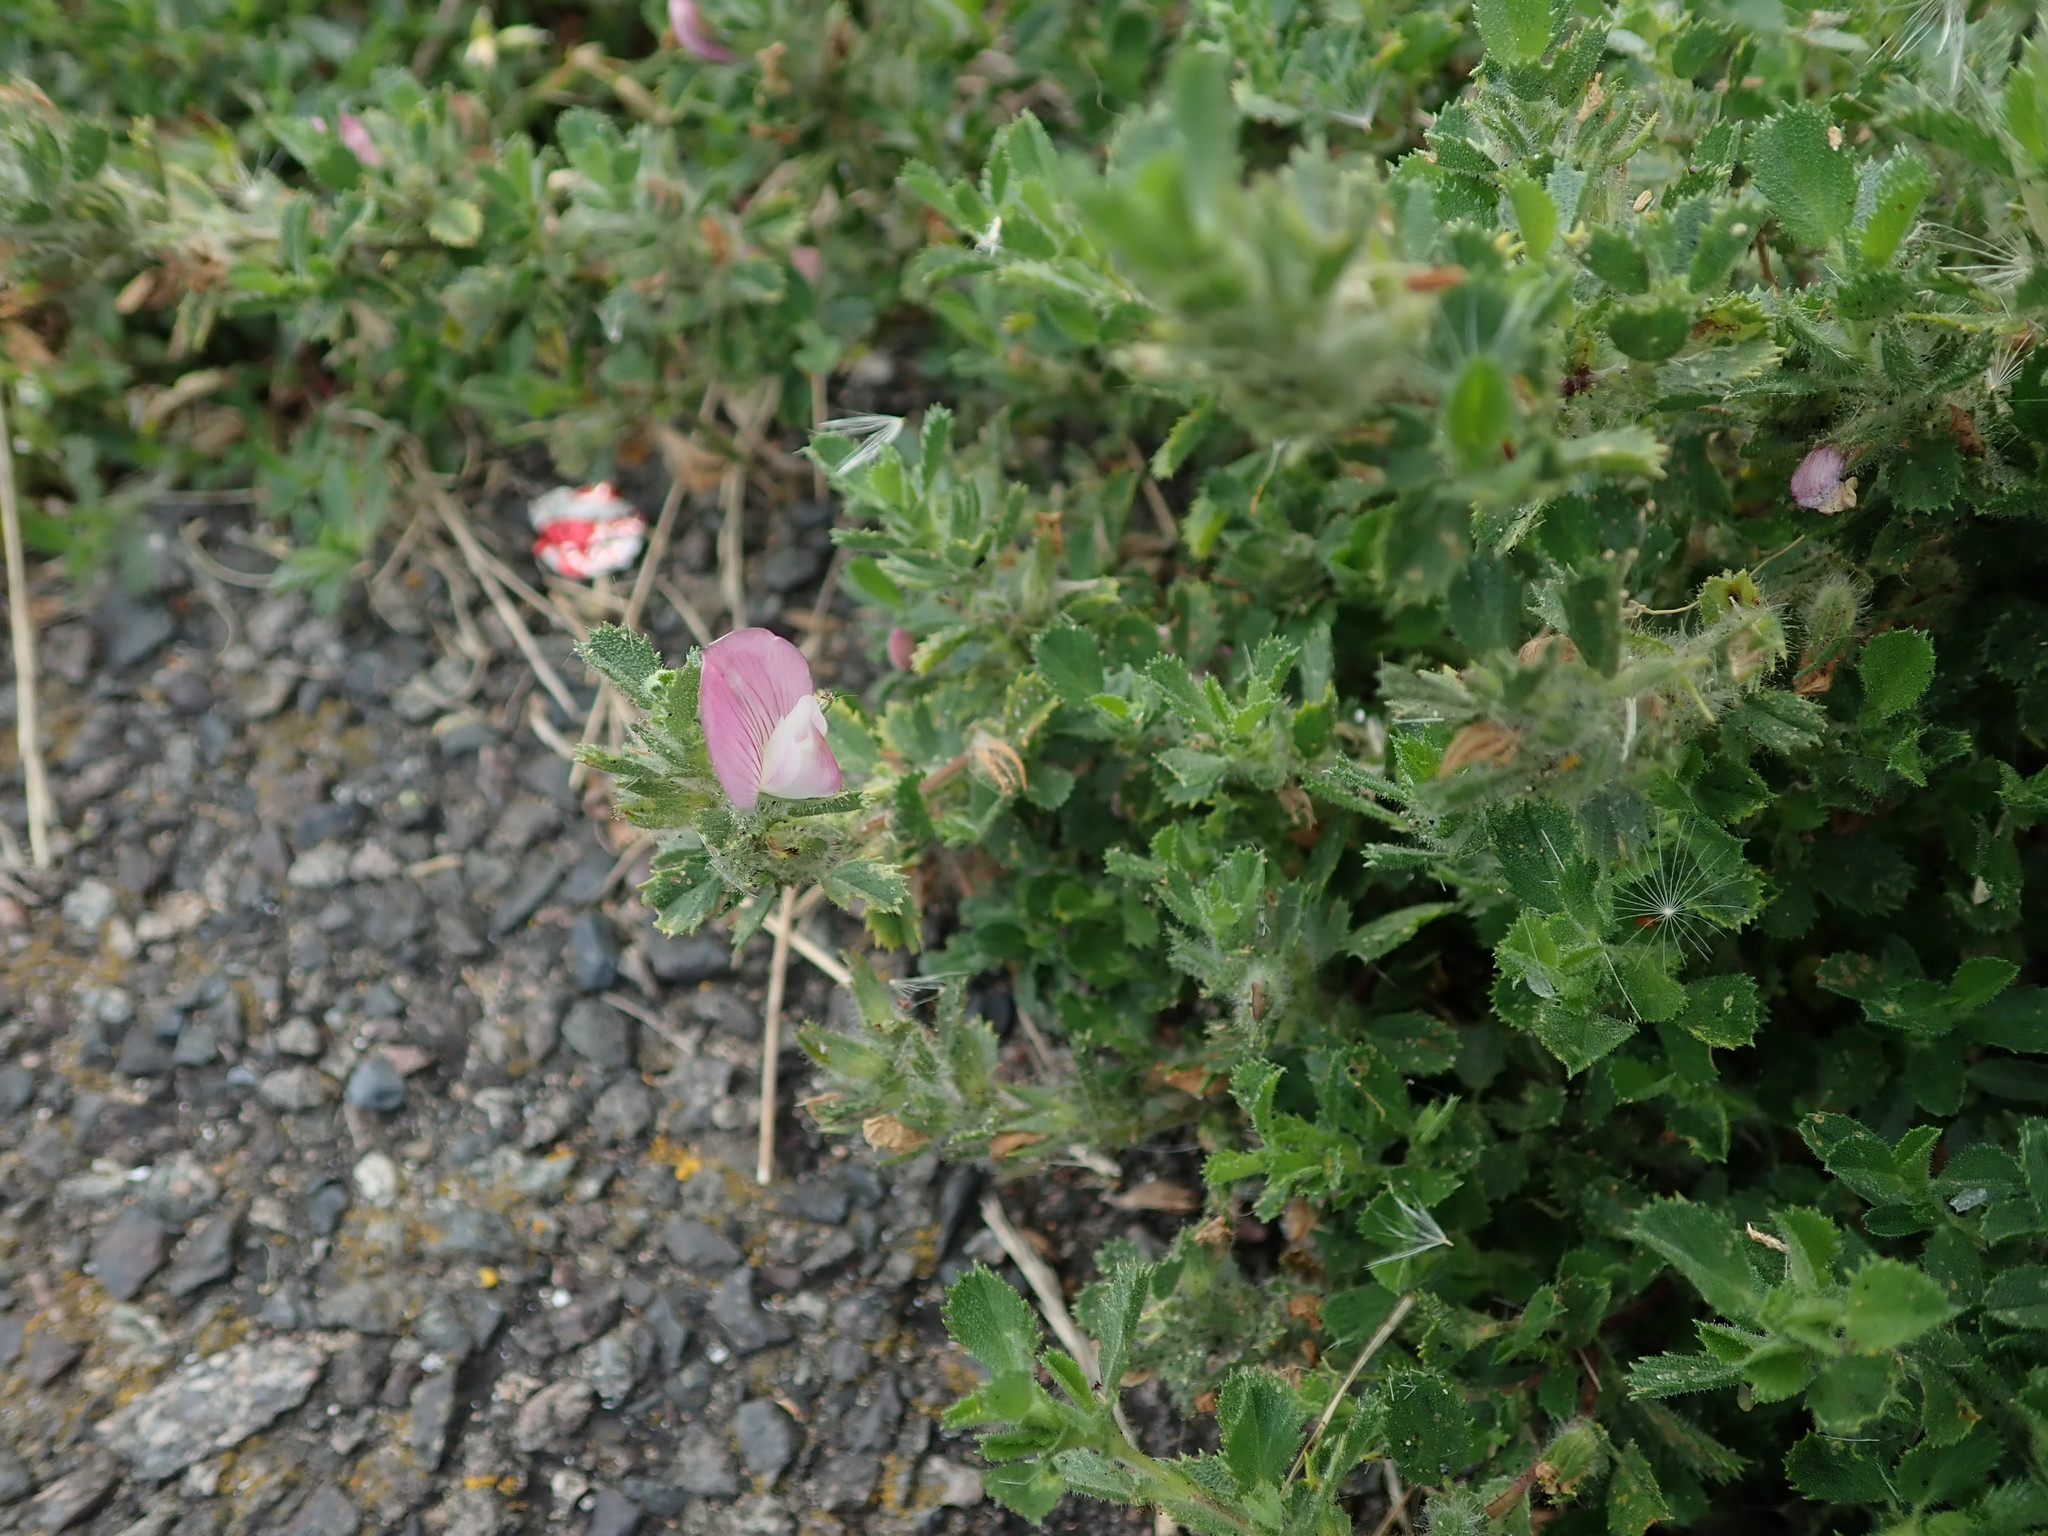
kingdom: Plantae
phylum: Tracheophyta
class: Magnoliopsida
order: Fabales
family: Fabaceae
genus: Ononis
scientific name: Ononis spinosa
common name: Spiny restharrow
